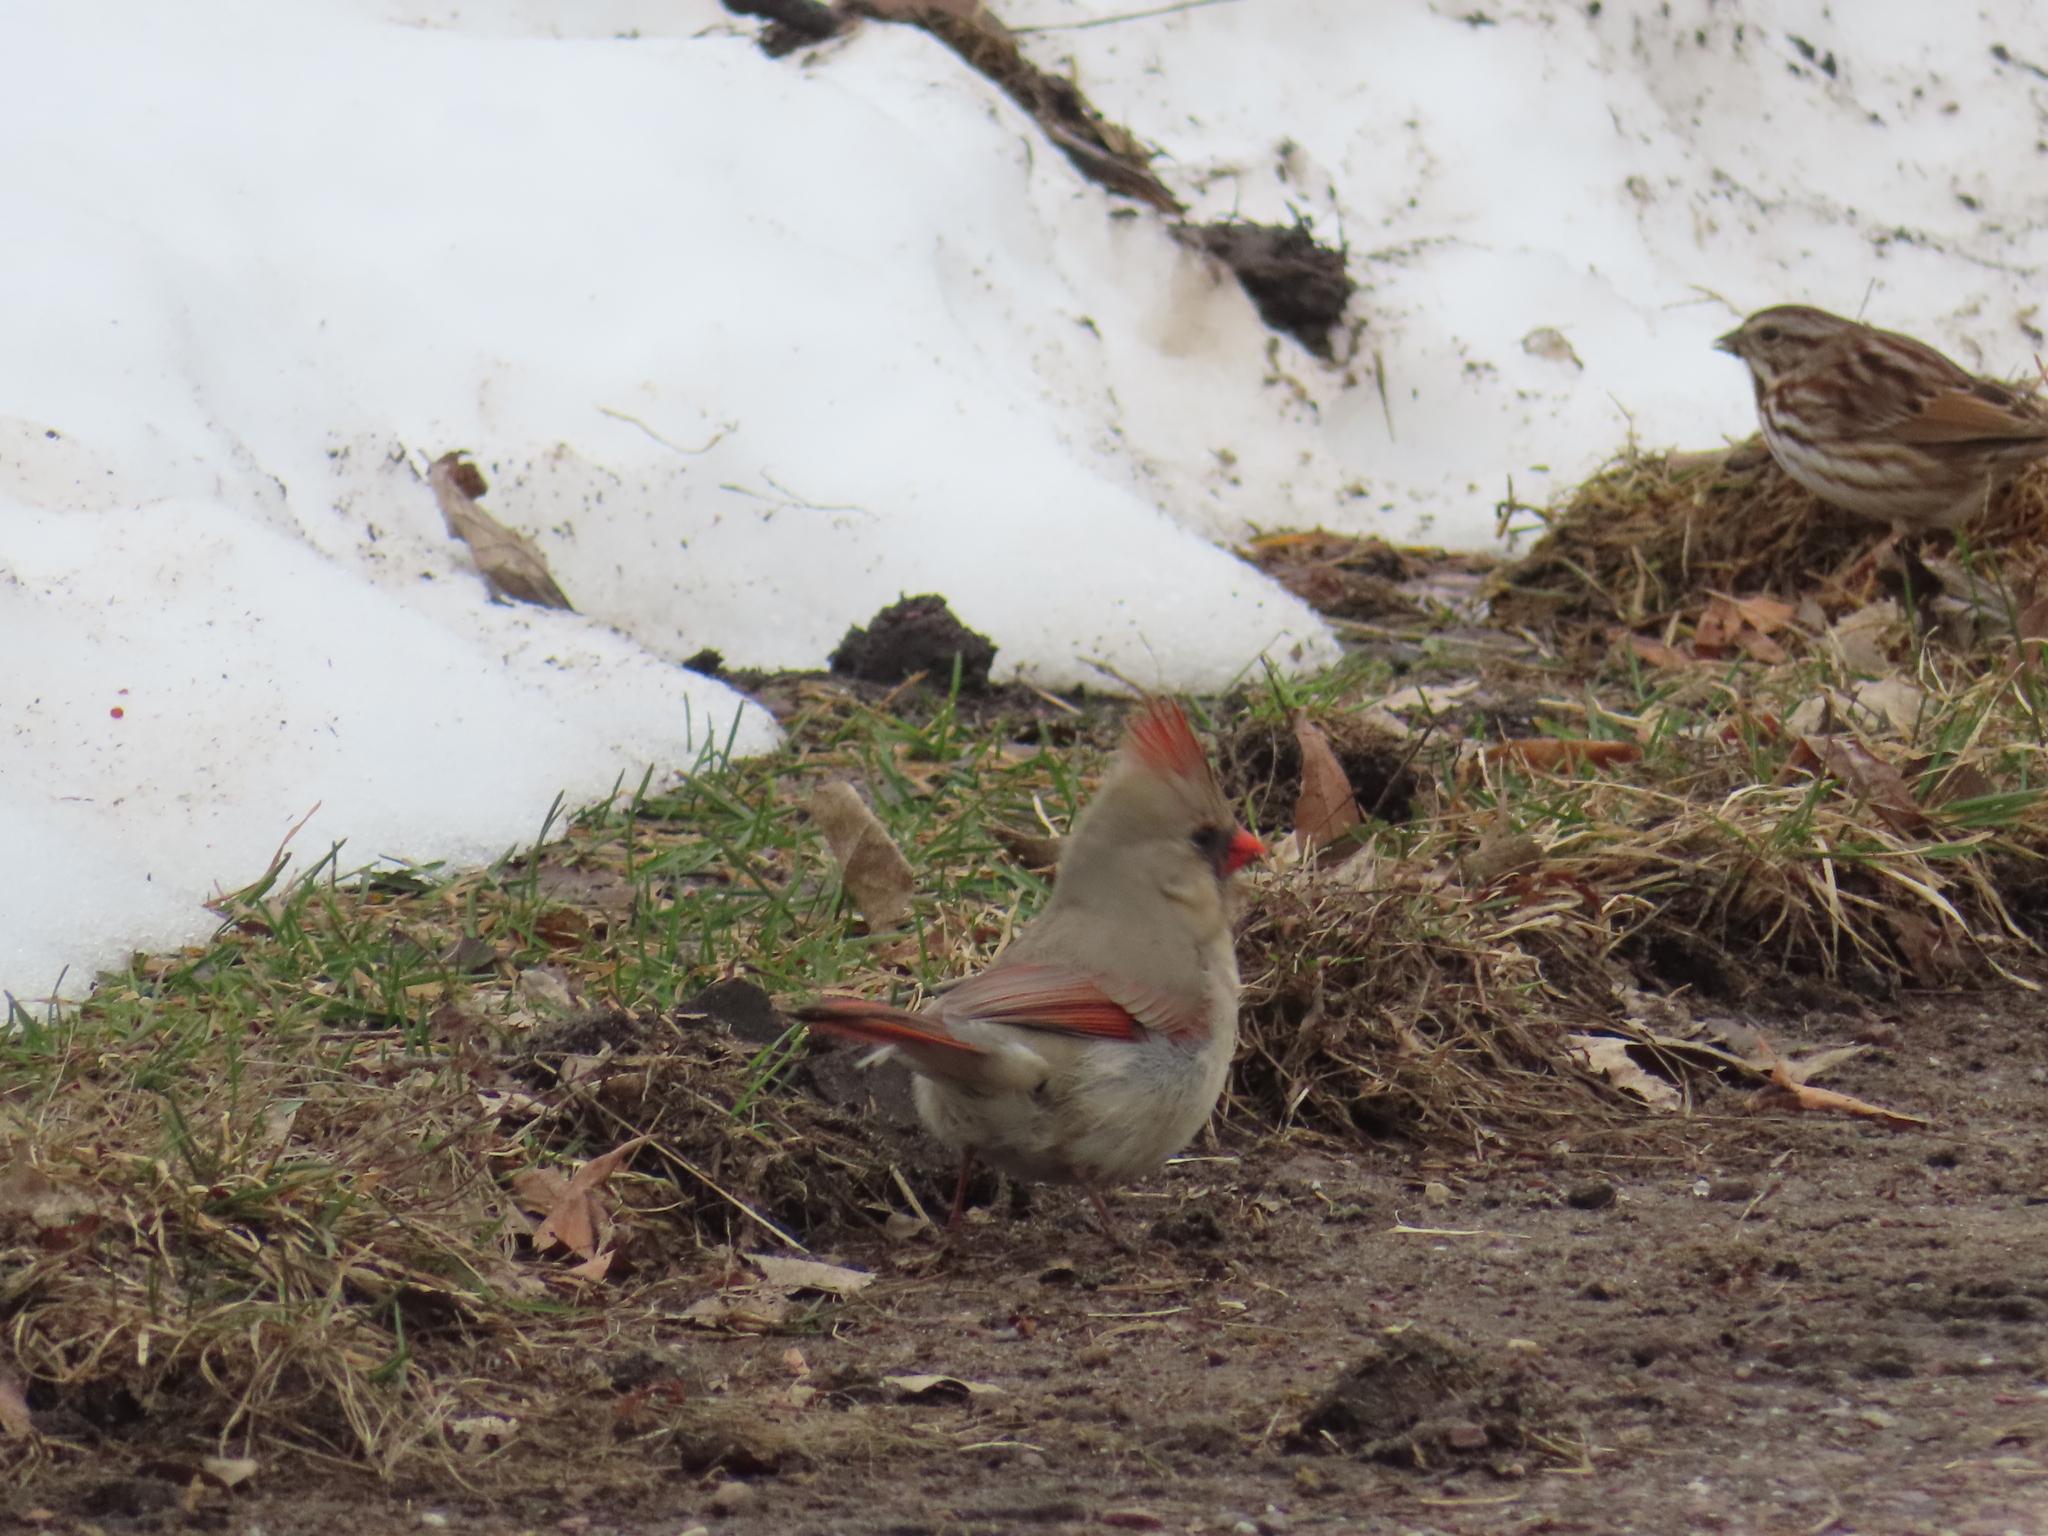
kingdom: Animalia
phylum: Chordata
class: Aves
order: Passeriformes
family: Cardinalidae
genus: Cardinalis
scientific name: Cardinalis cardinalis
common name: Northern cardinal
